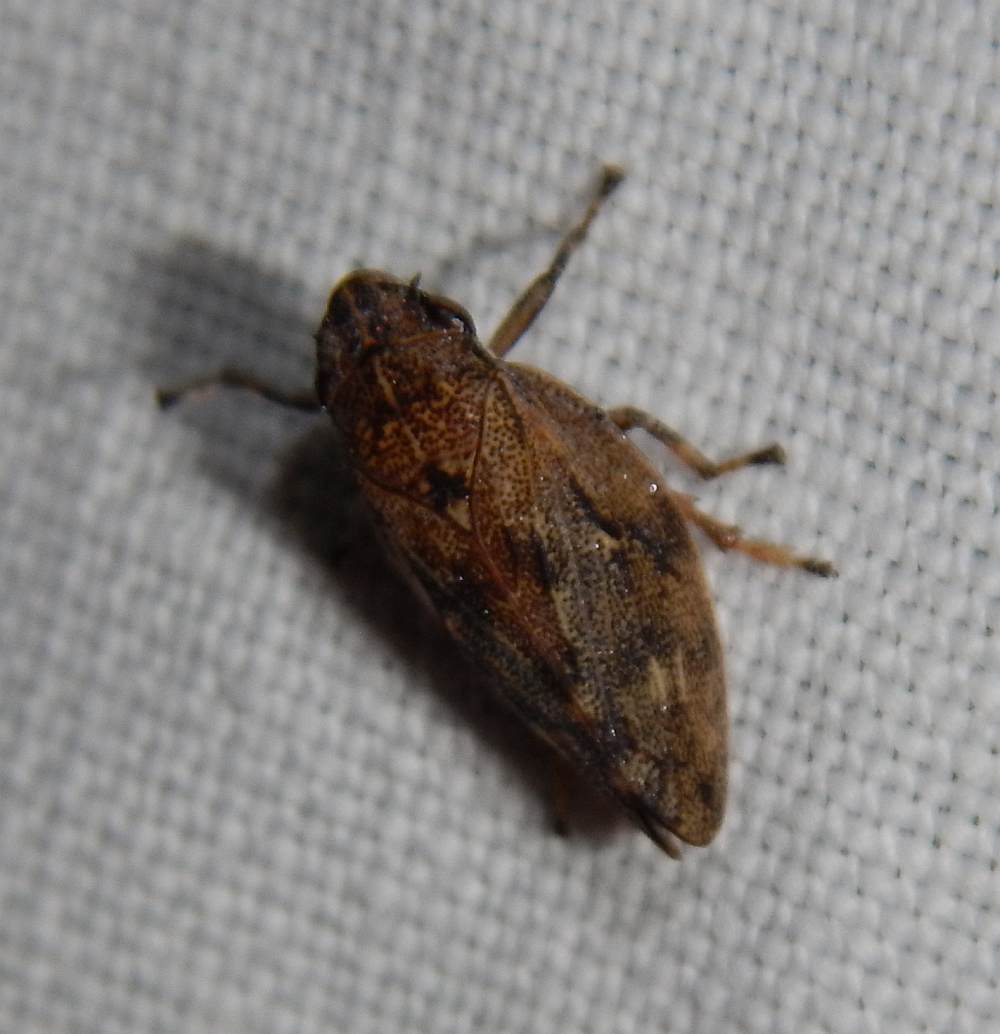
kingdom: Animalia
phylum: Arthropoda
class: Insecta
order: Hemiptera
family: Epipygidae
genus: Epipyga
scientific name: Epipyga cribrata
